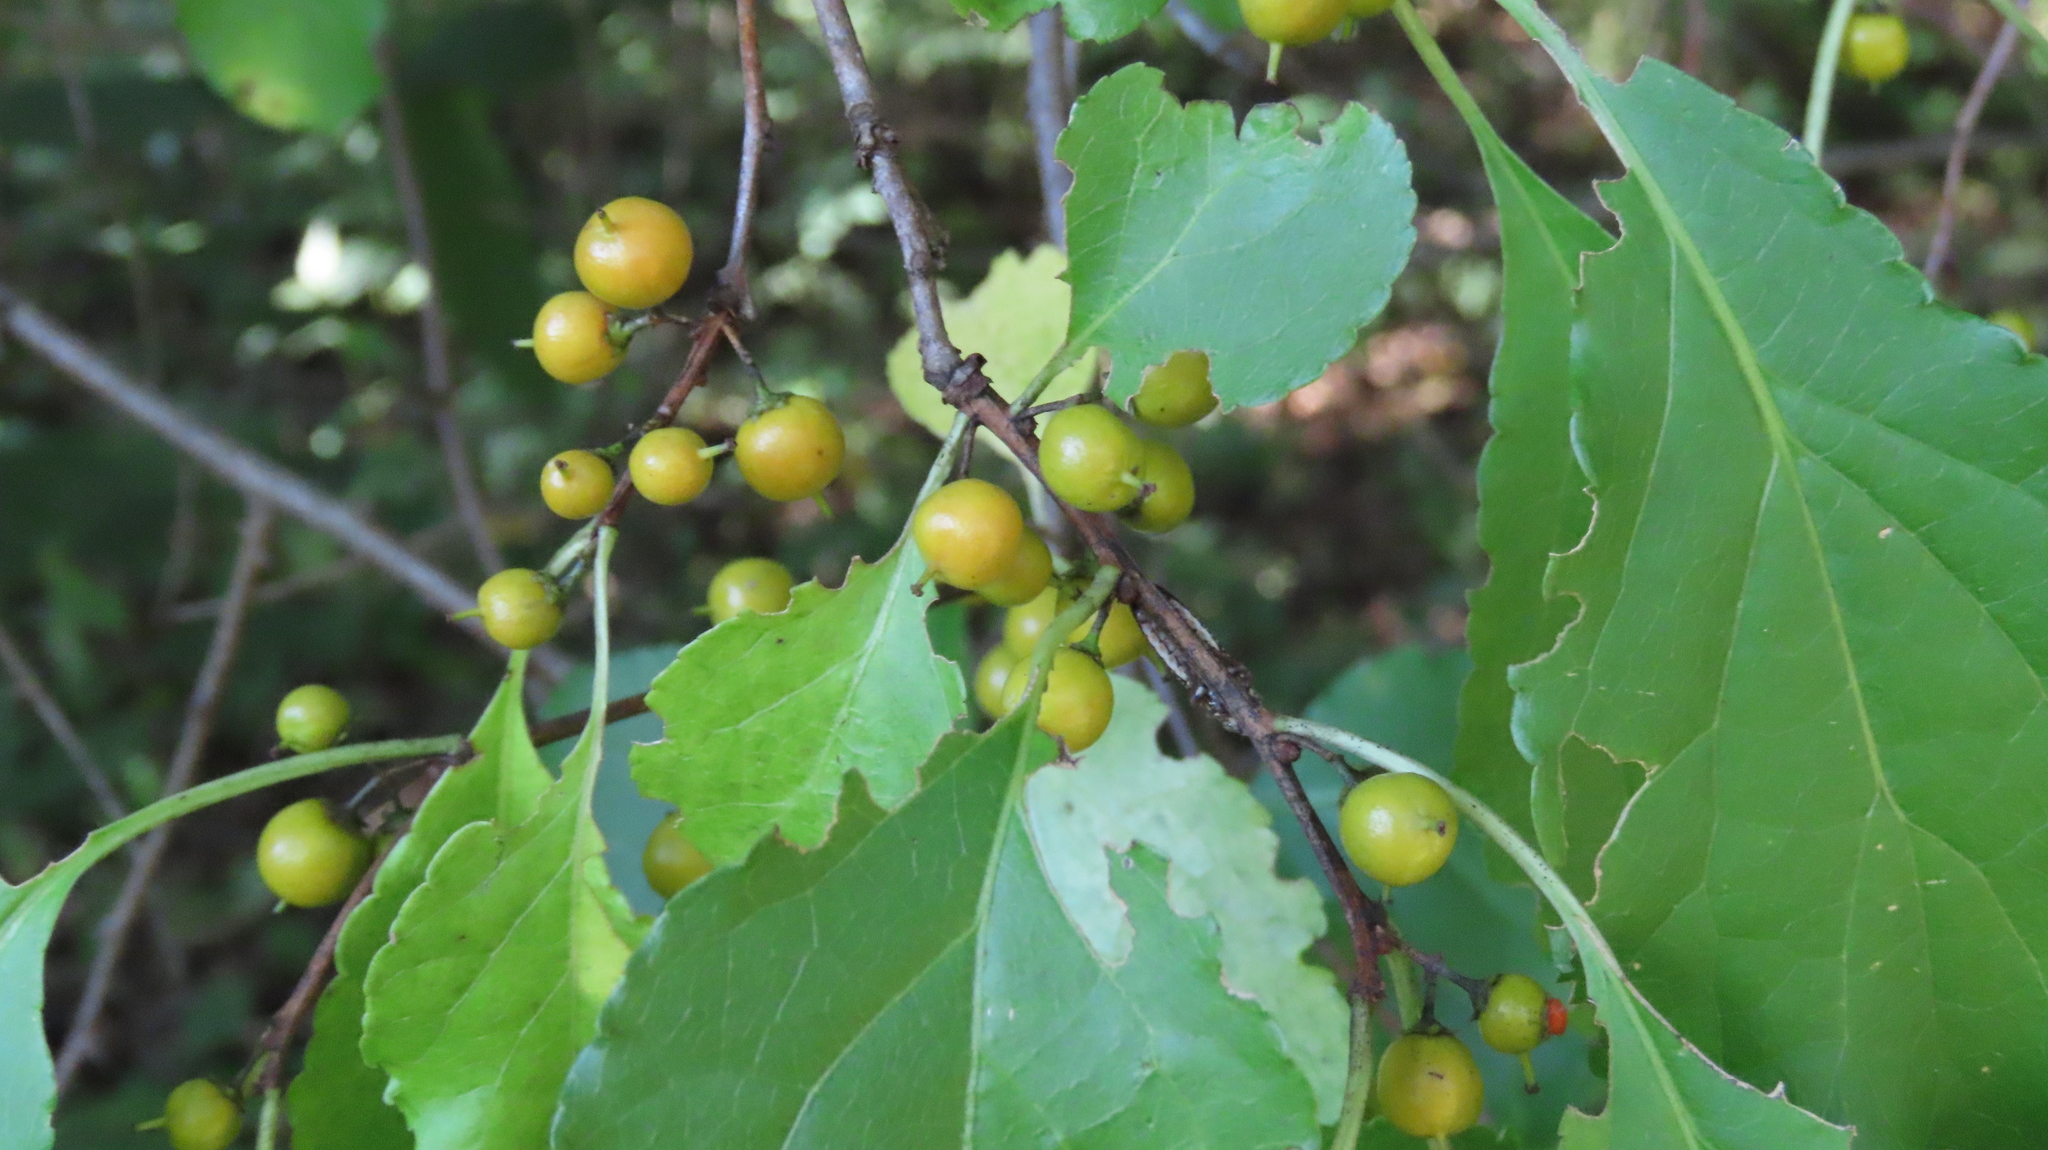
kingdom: Plantae
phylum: Tracheophyta
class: Magnoliopsida
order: Celastrales
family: Celastraceae
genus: Celastrus
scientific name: Celastrus orbiculatus
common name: Oriental bittersweet
